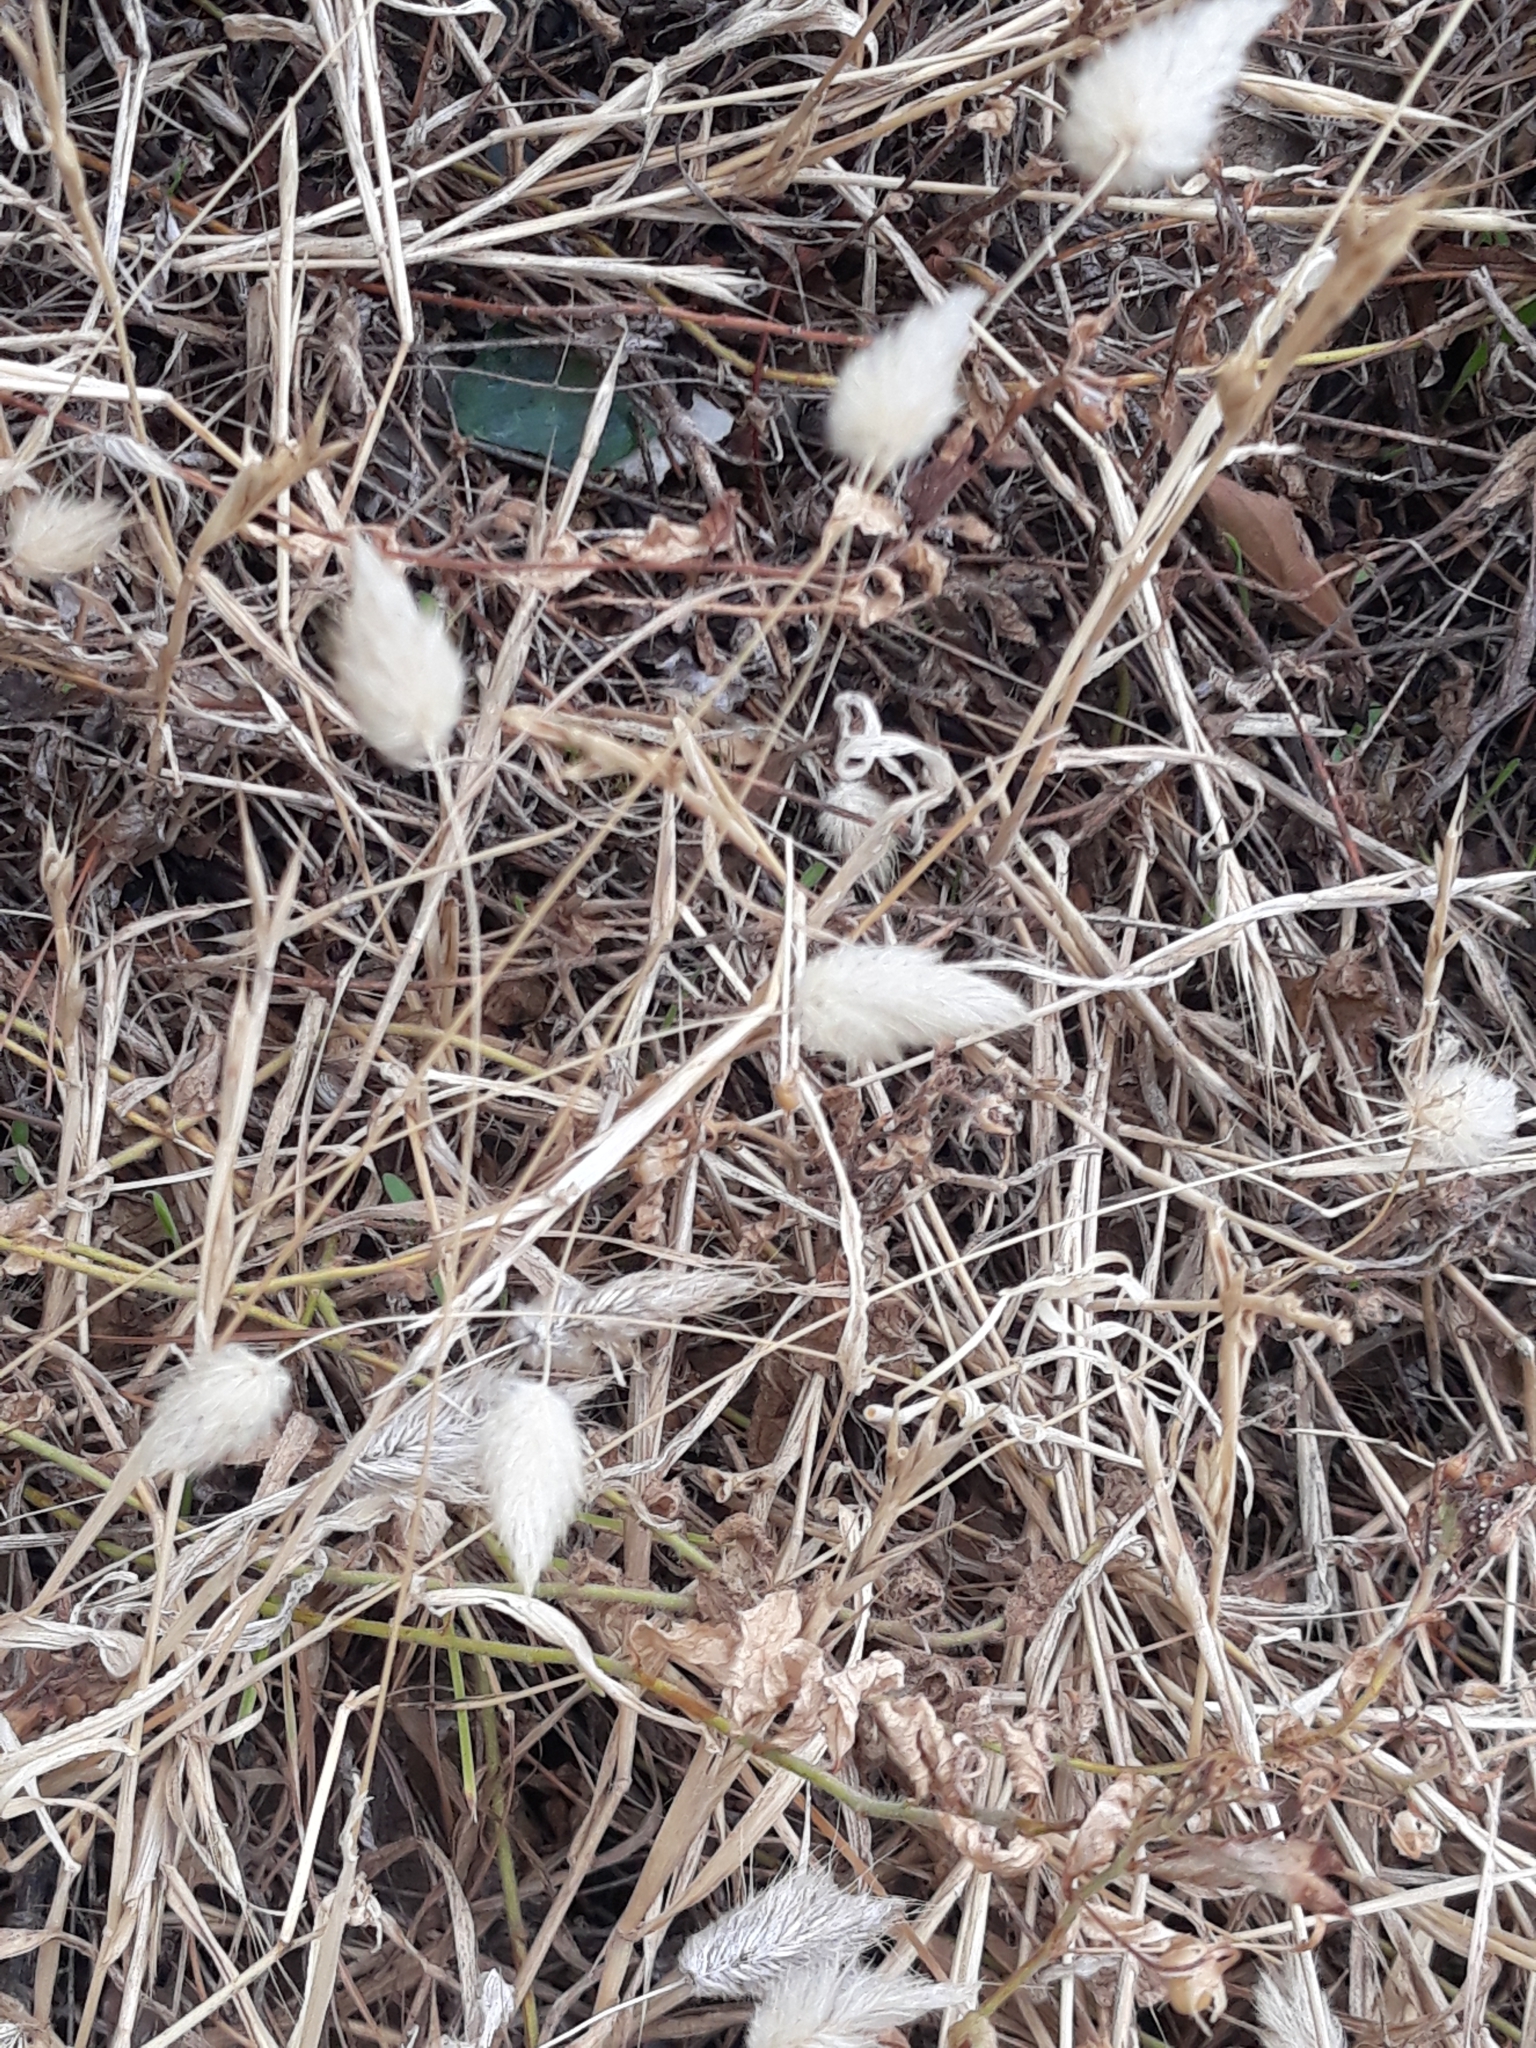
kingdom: Plantae
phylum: Tracheophyta
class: Liliopsida
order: Poales
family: Poaceae
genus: Lagurus
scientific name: Lagurus ovatus
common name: Hare's-tail
